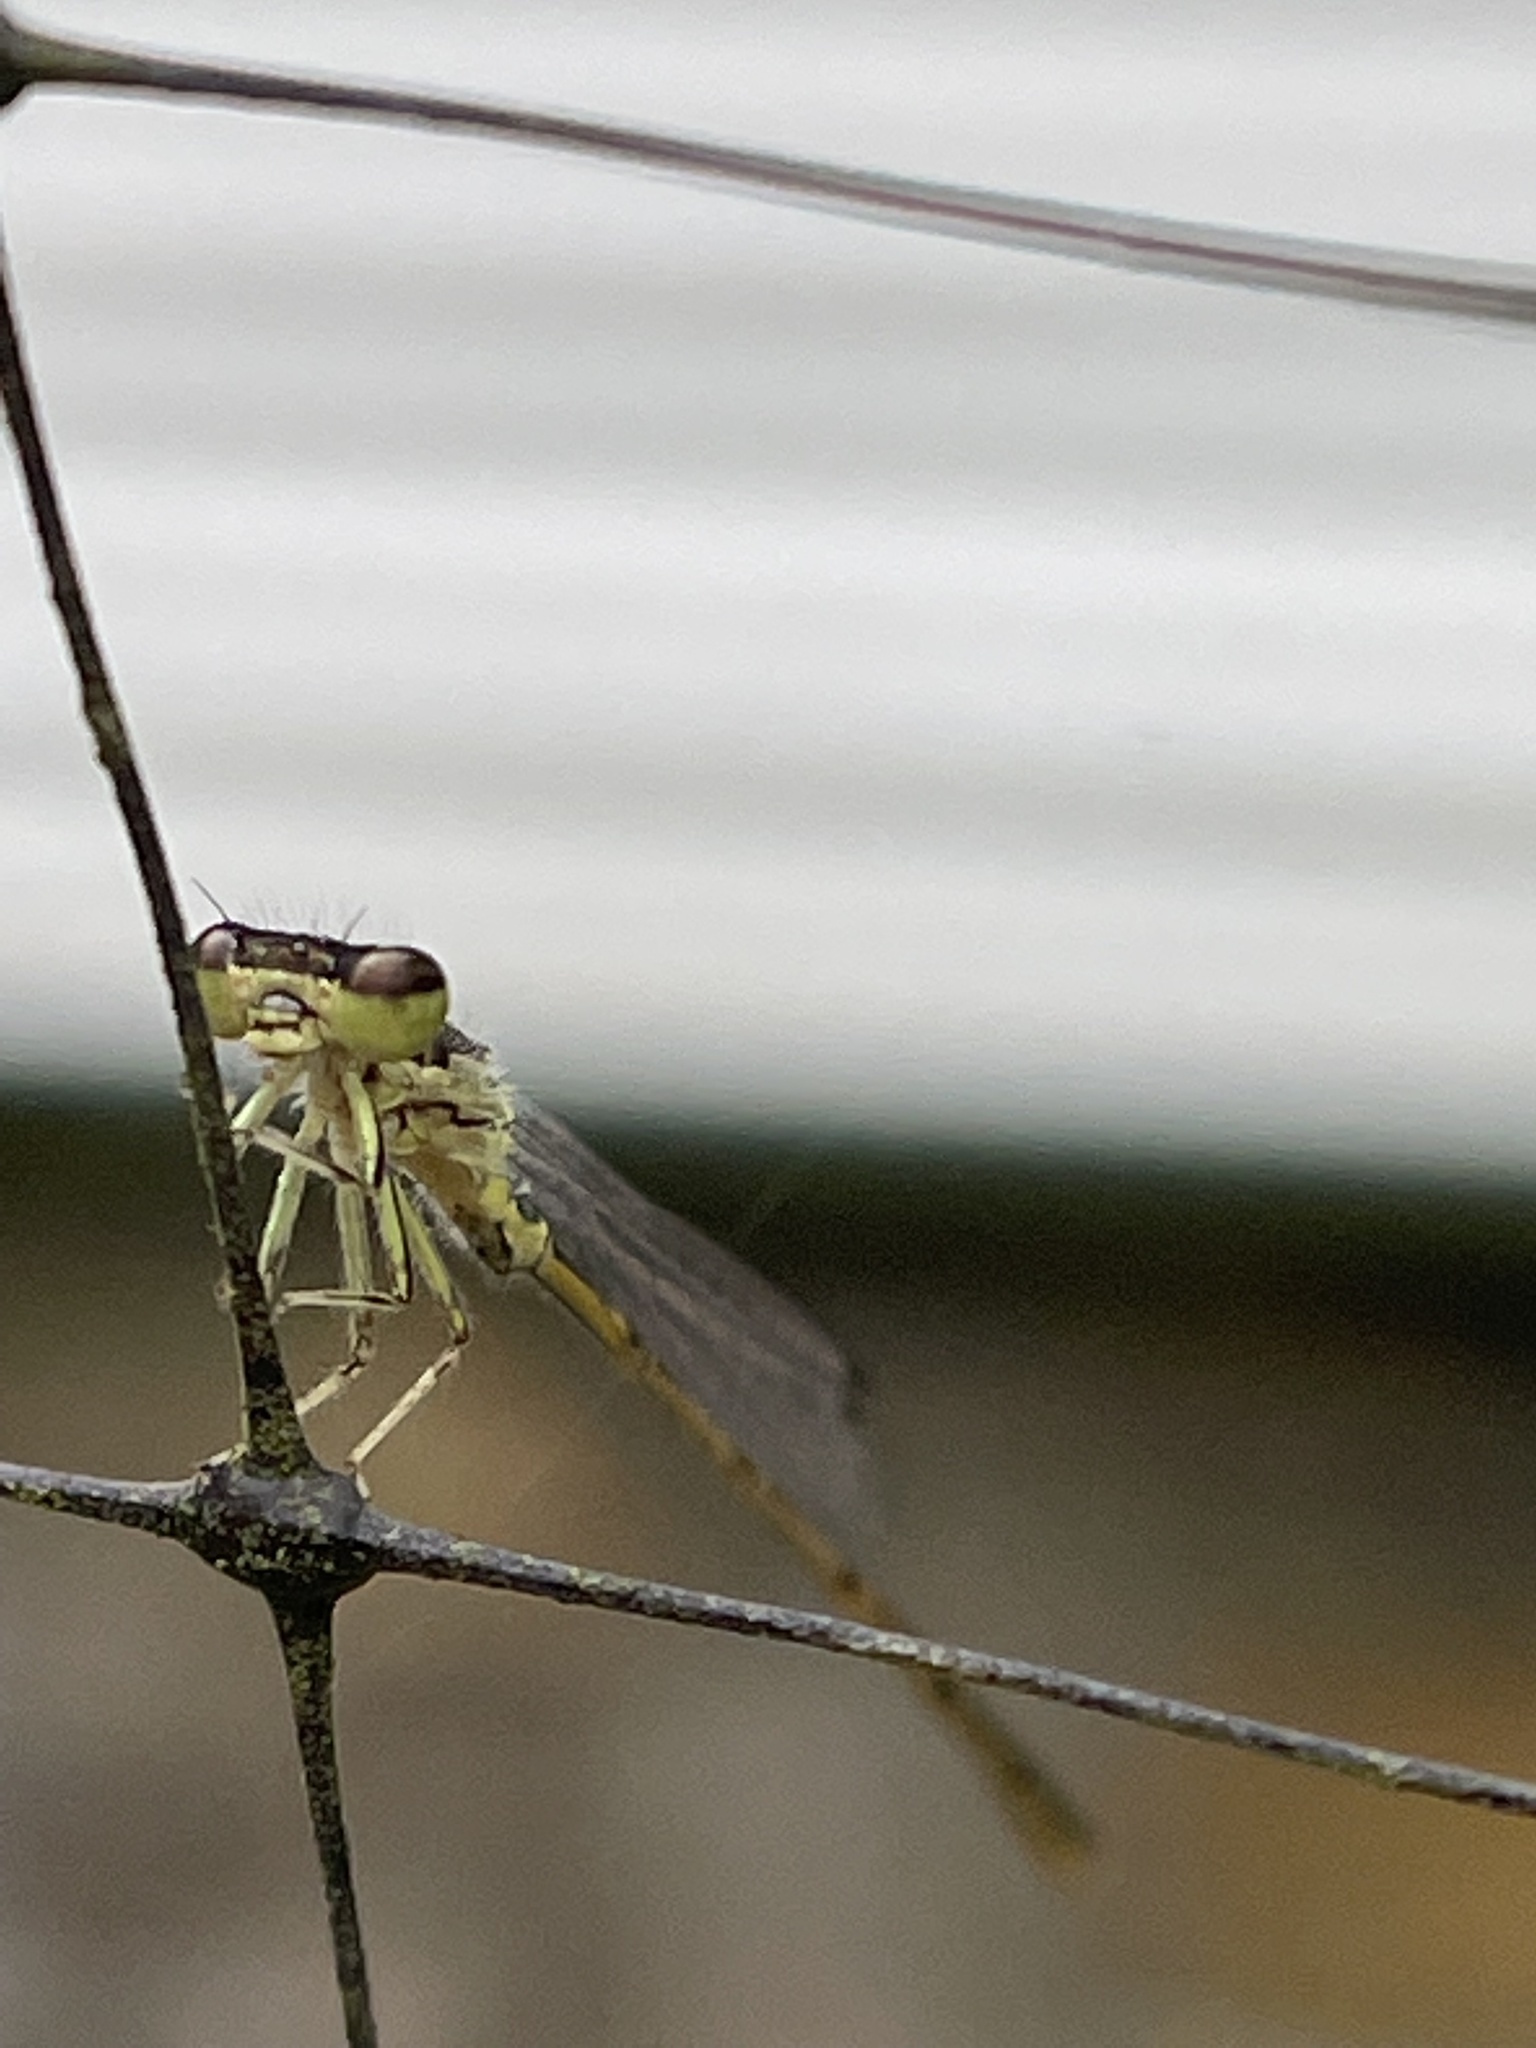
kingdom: Animalia
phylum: Arthropoda
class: Insecta
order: Odonata
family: Coenagrionidae
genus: Ischnura
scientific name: Ischnura posita
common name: Fragile forktail
